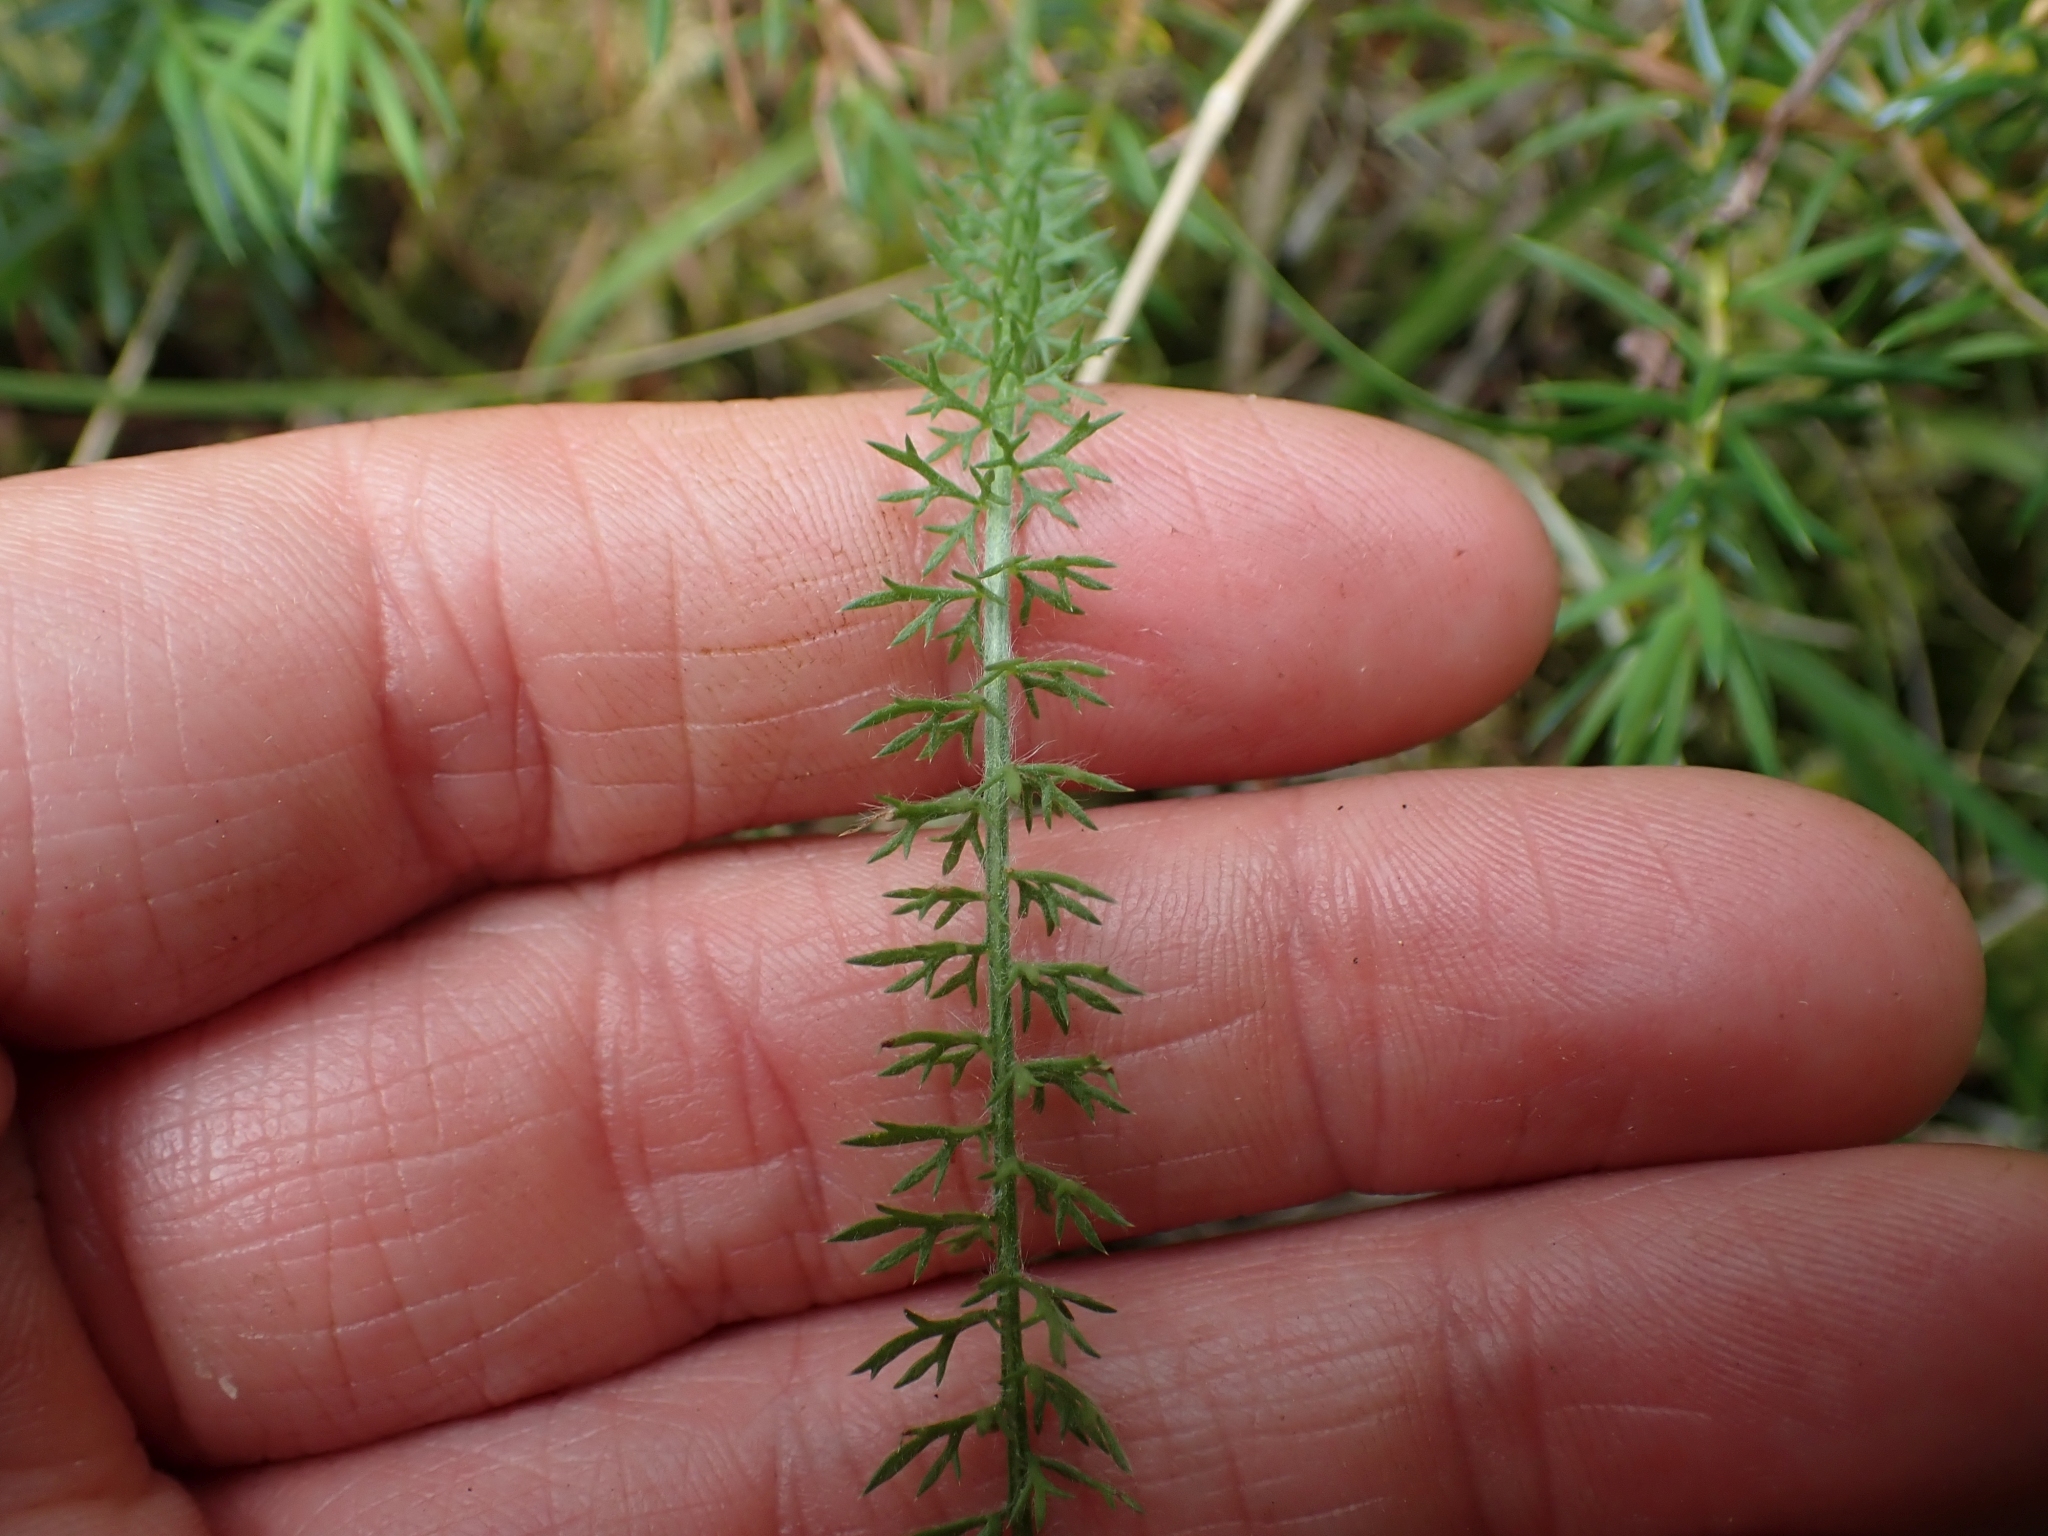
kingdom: Plantae
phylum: Tracheophyta
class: Magnoliopsida
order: Asterales
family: Asteraceae
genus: Achillea
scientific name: Achillea millefolium
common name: Yarrow
